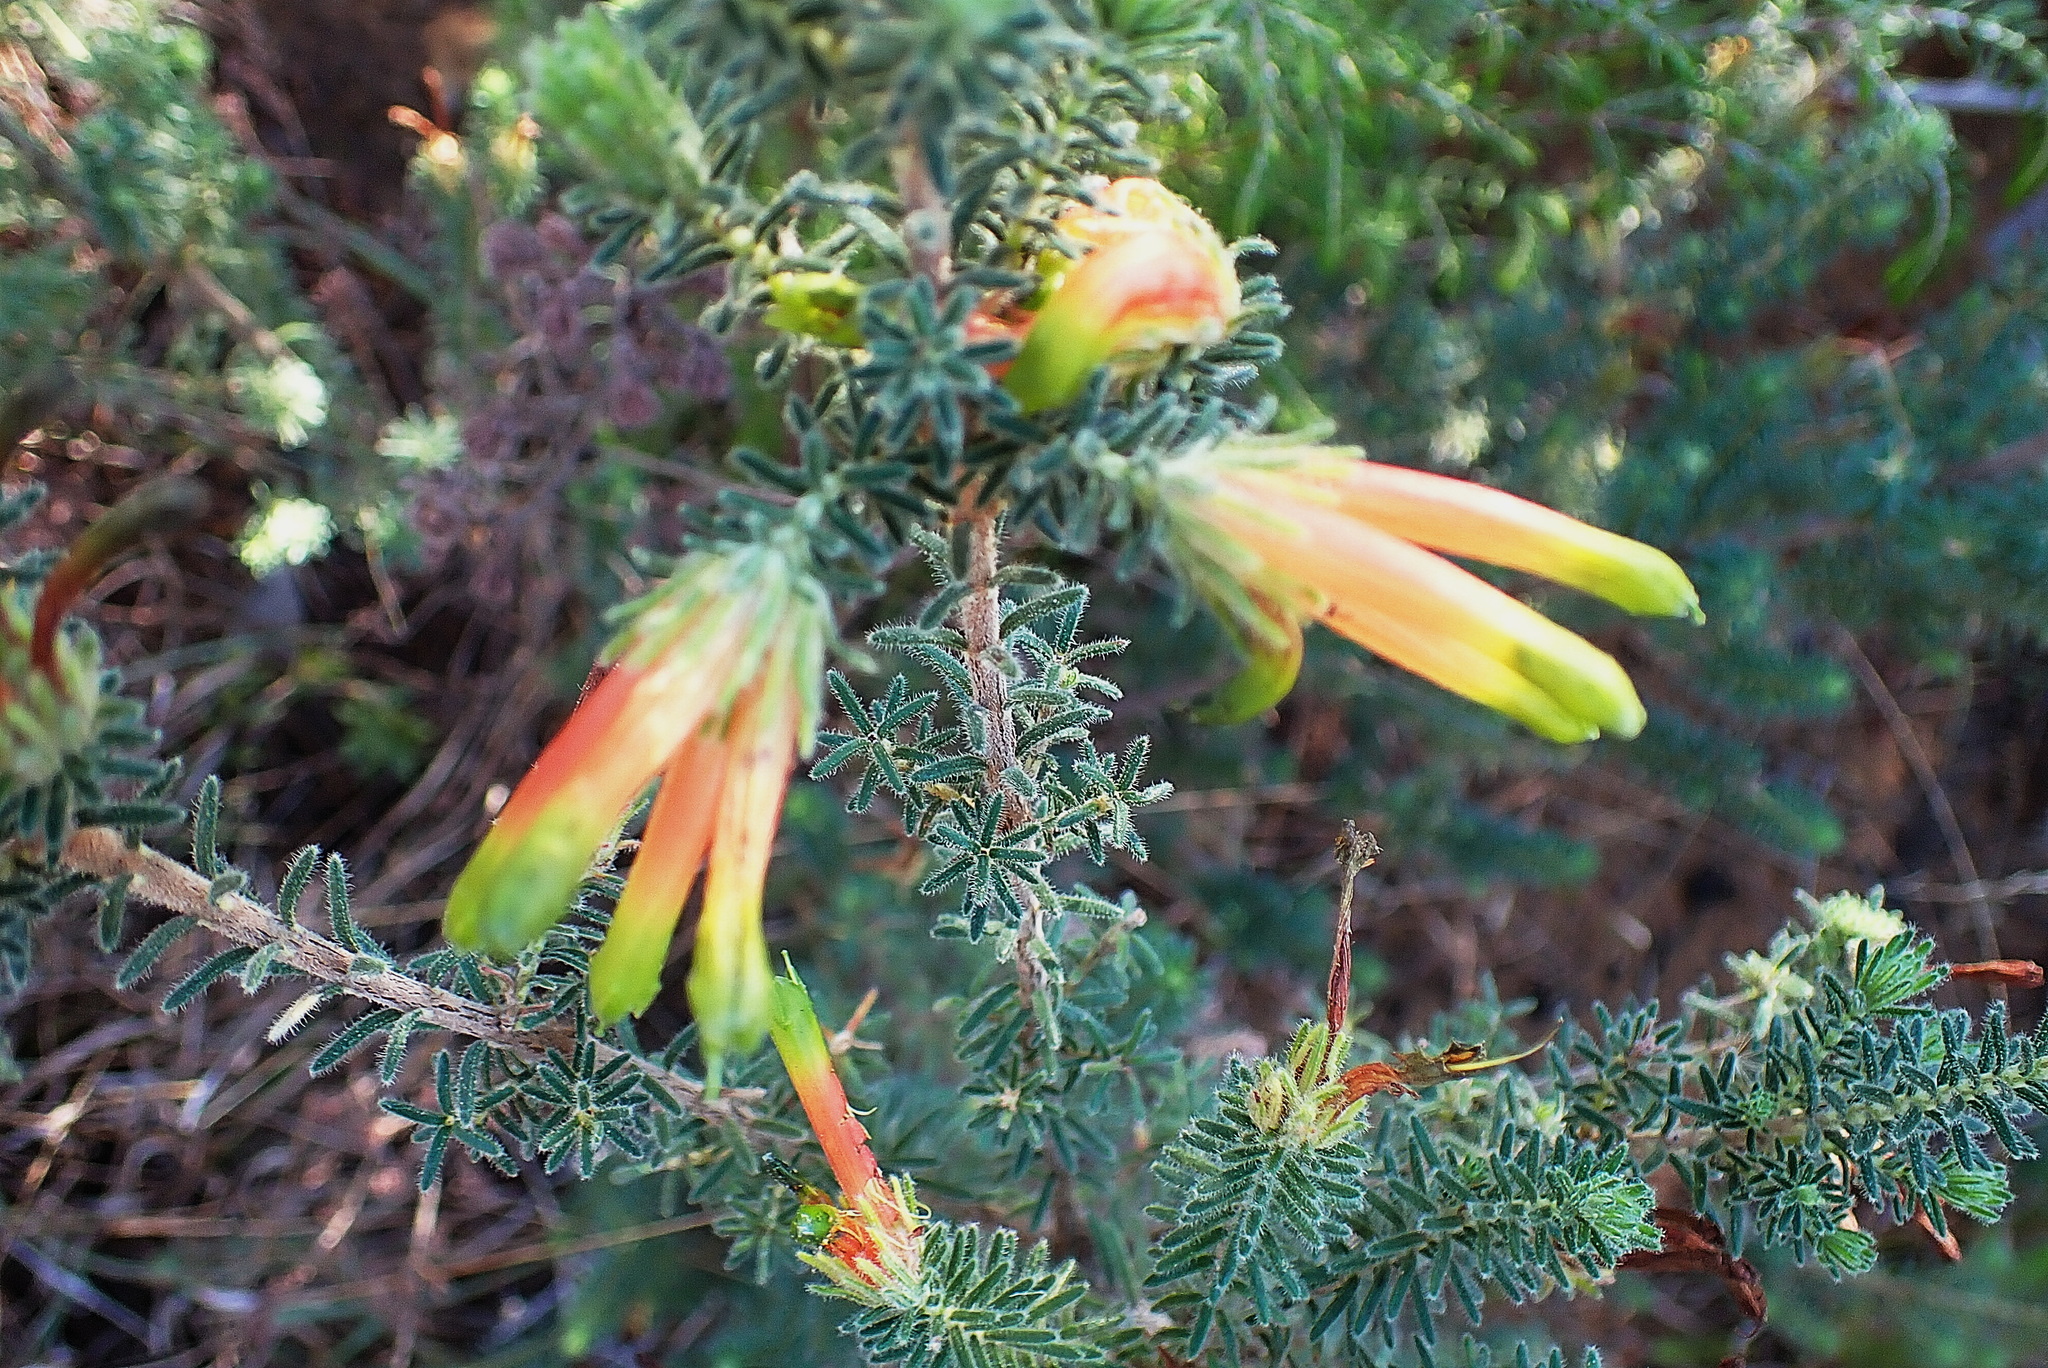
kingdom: Plantae
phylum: Tracheophyta
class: Magnoliopsida
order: Ericales
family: Ericaceae
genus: Erica
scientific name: Erica unicolor
